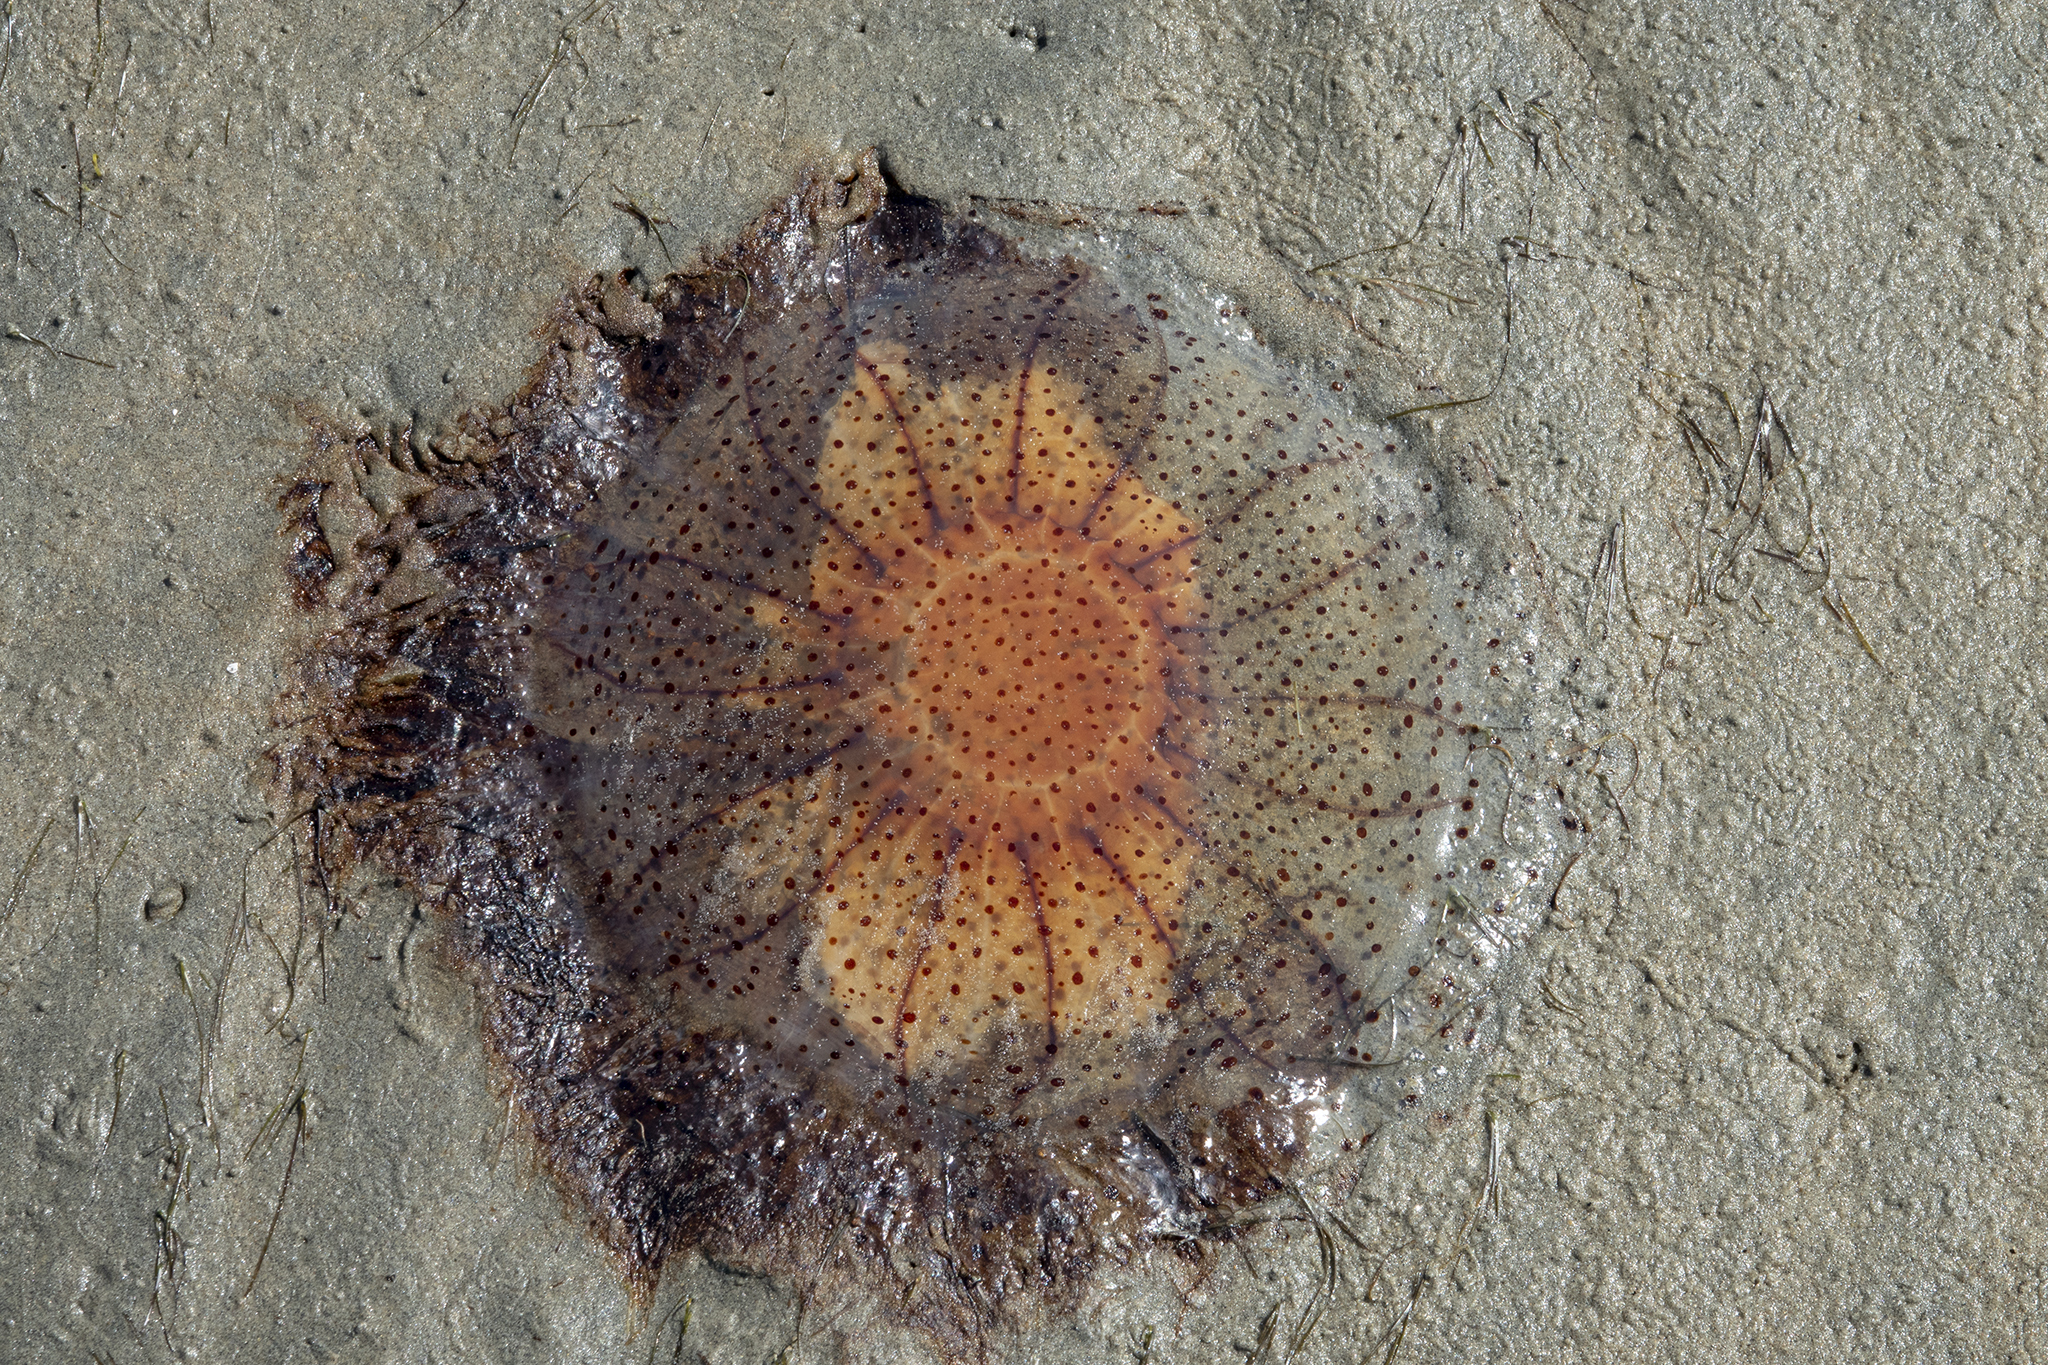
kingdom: Animalia
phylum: Cnidaria
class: Scyphozoa
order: Semaeostomeae
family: Cyaneidae
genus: Desmonema
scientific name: Desmonema gaudichaudi
